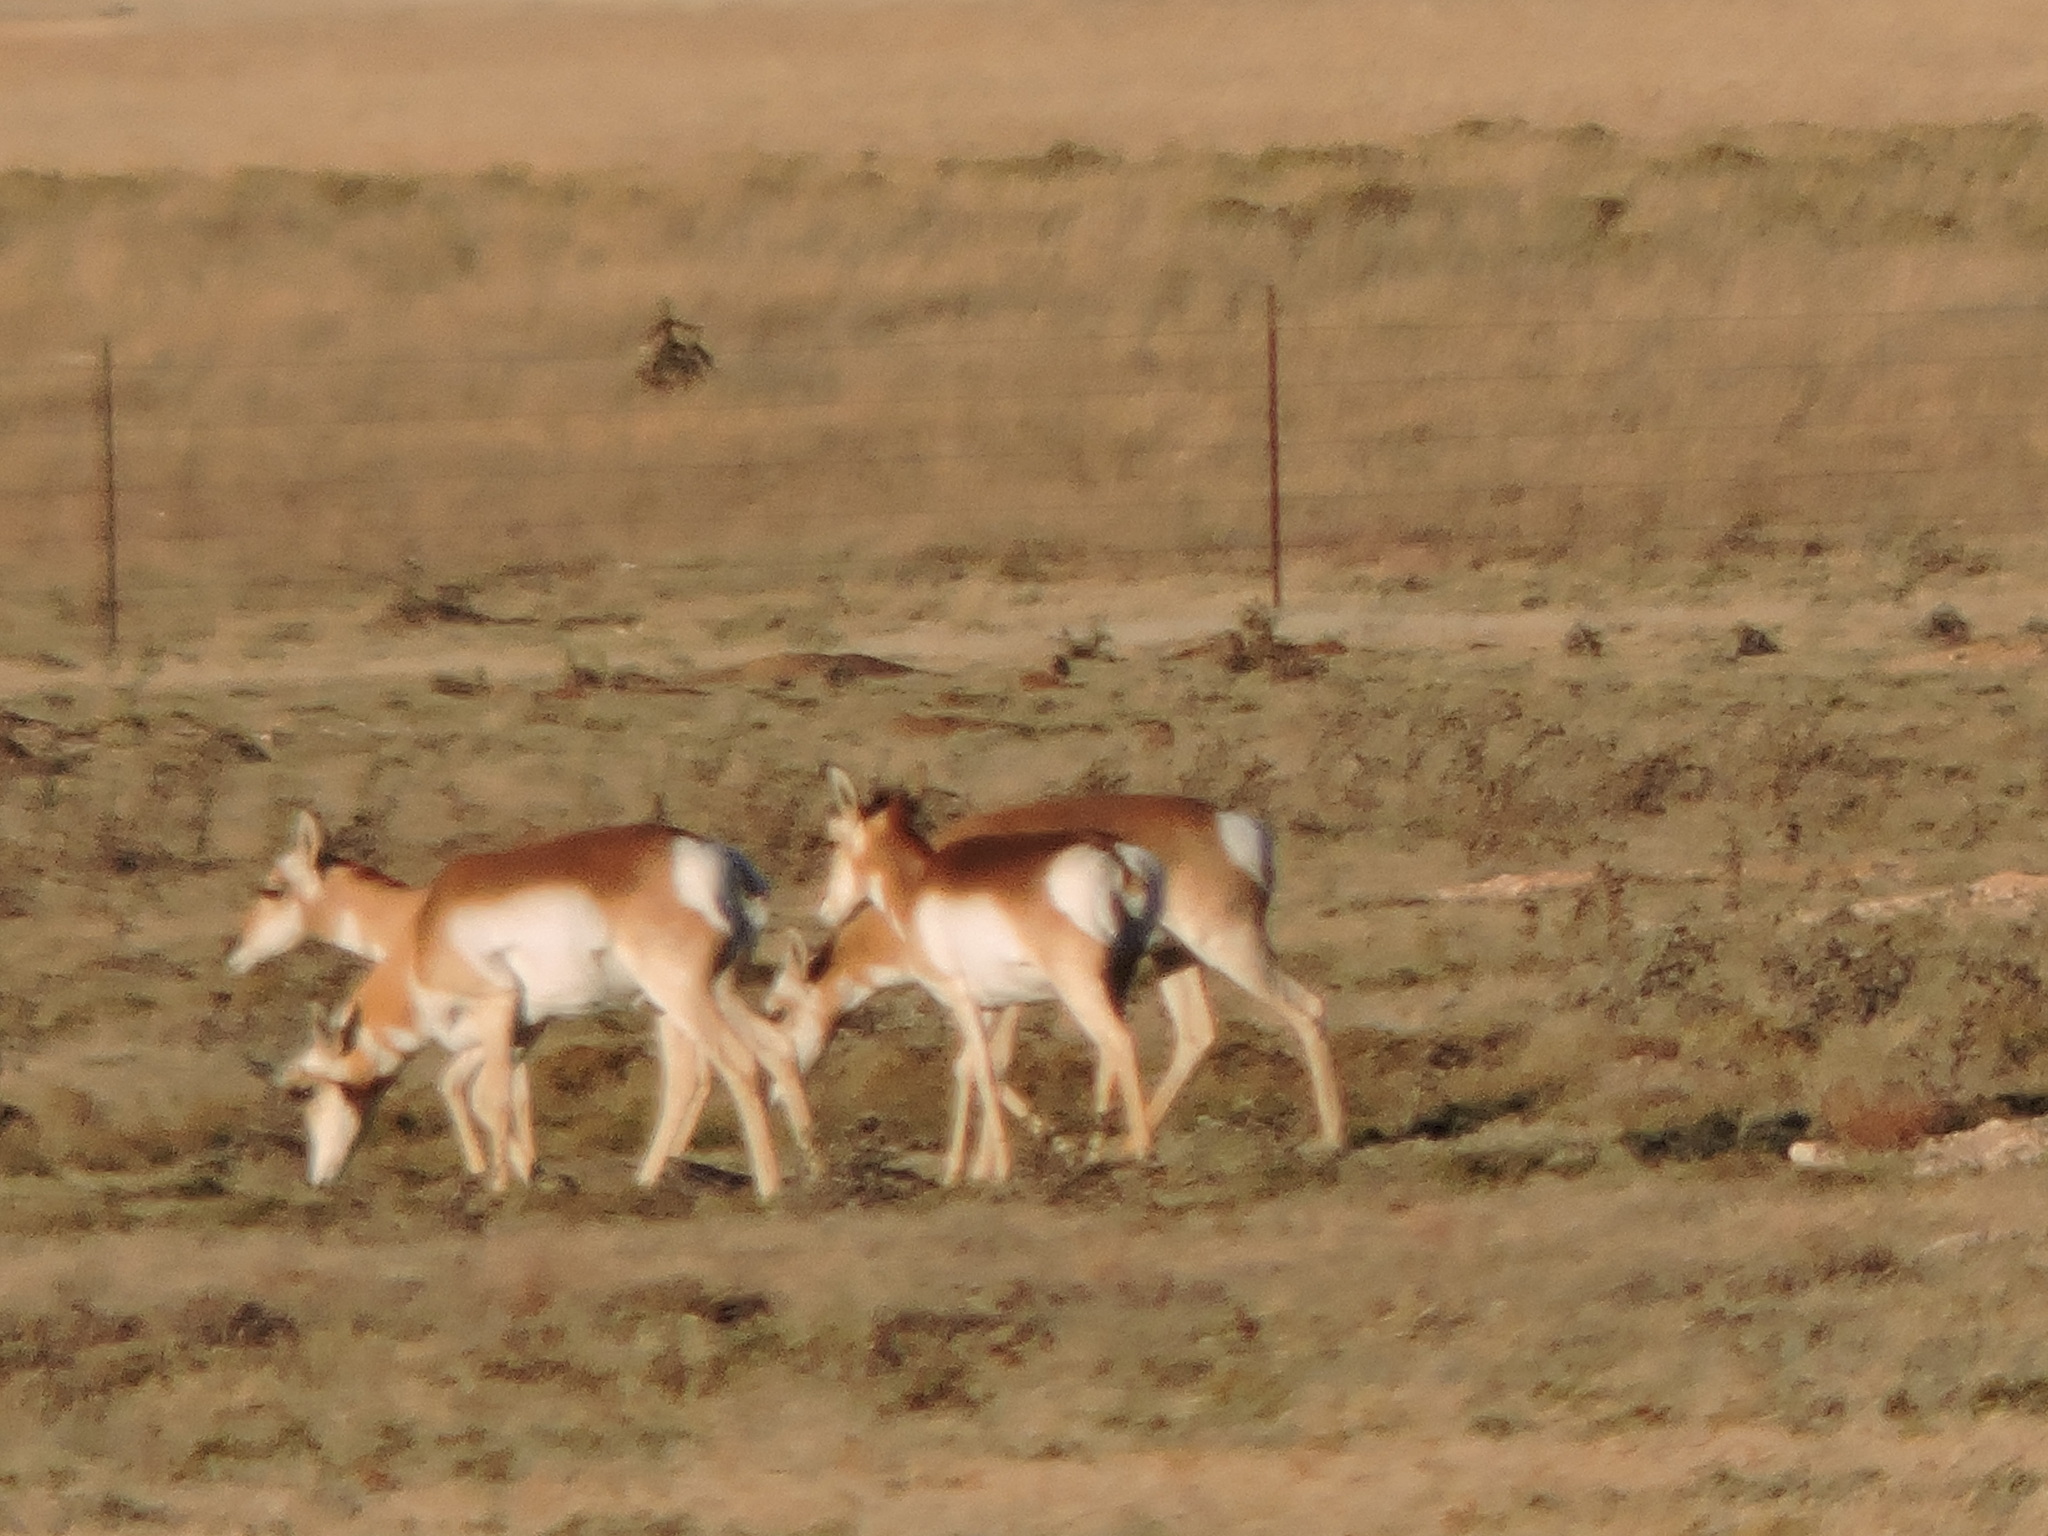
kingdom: Animalia
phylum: Chordata
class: Mammalia
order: Artiodactyla
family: Antilocapridae
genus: Antilocapra
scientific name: Antilocapra americana
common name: Pronghorn
